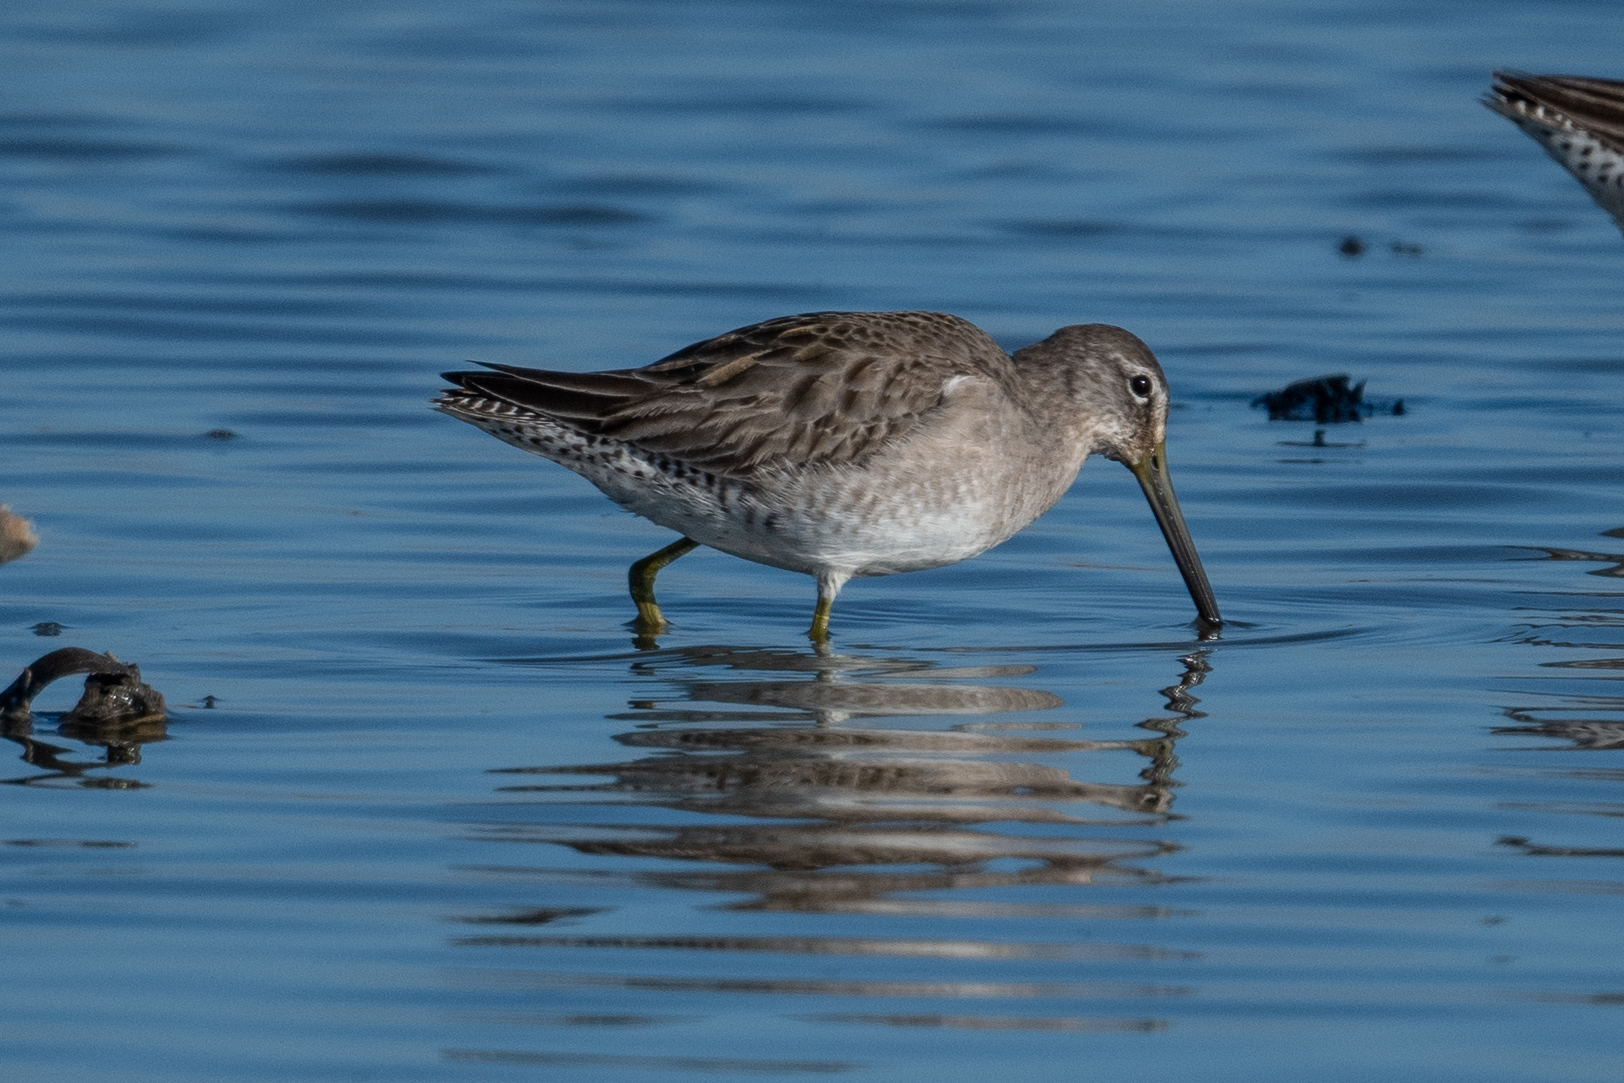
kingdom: Animalia
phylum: Chordata
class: Aves
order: Charadriiformes
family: Scolopacidae
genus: Limnodromus
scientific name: Limnodromus scolopaceus
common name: Long-billed dowitcher
